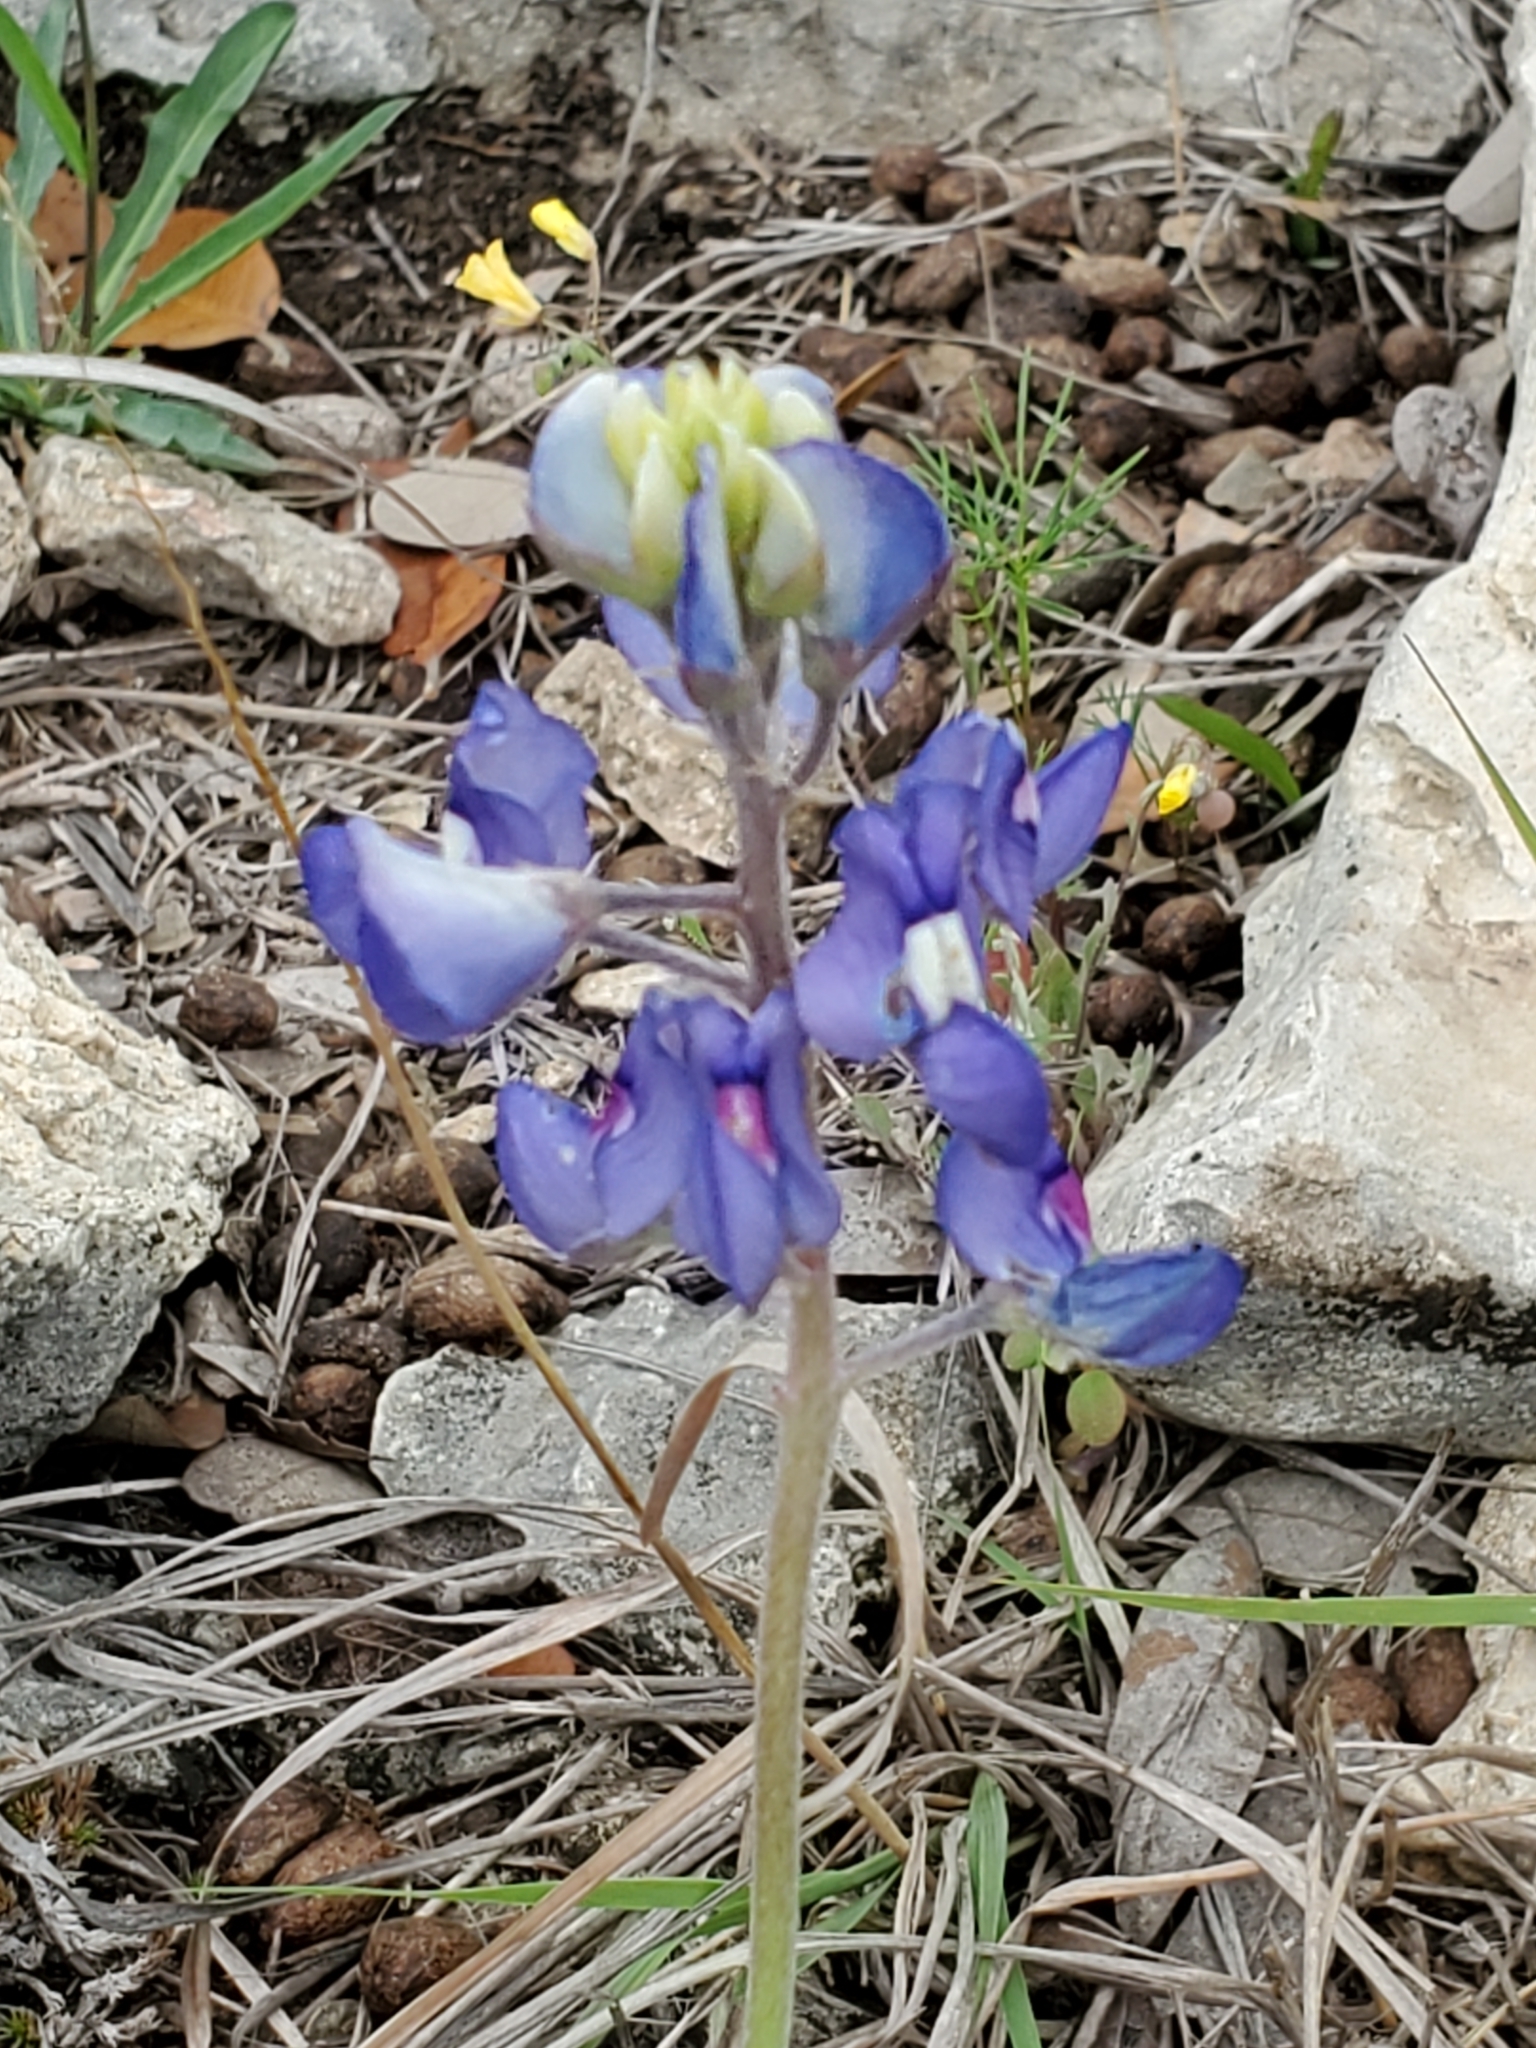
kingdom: Plantae
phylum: Tracheophyta
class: Magnoliopsida
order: Fabales
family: Fabaceae
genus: Lupinus
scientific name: Lupinus texensis
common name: Texas bluebonnet
